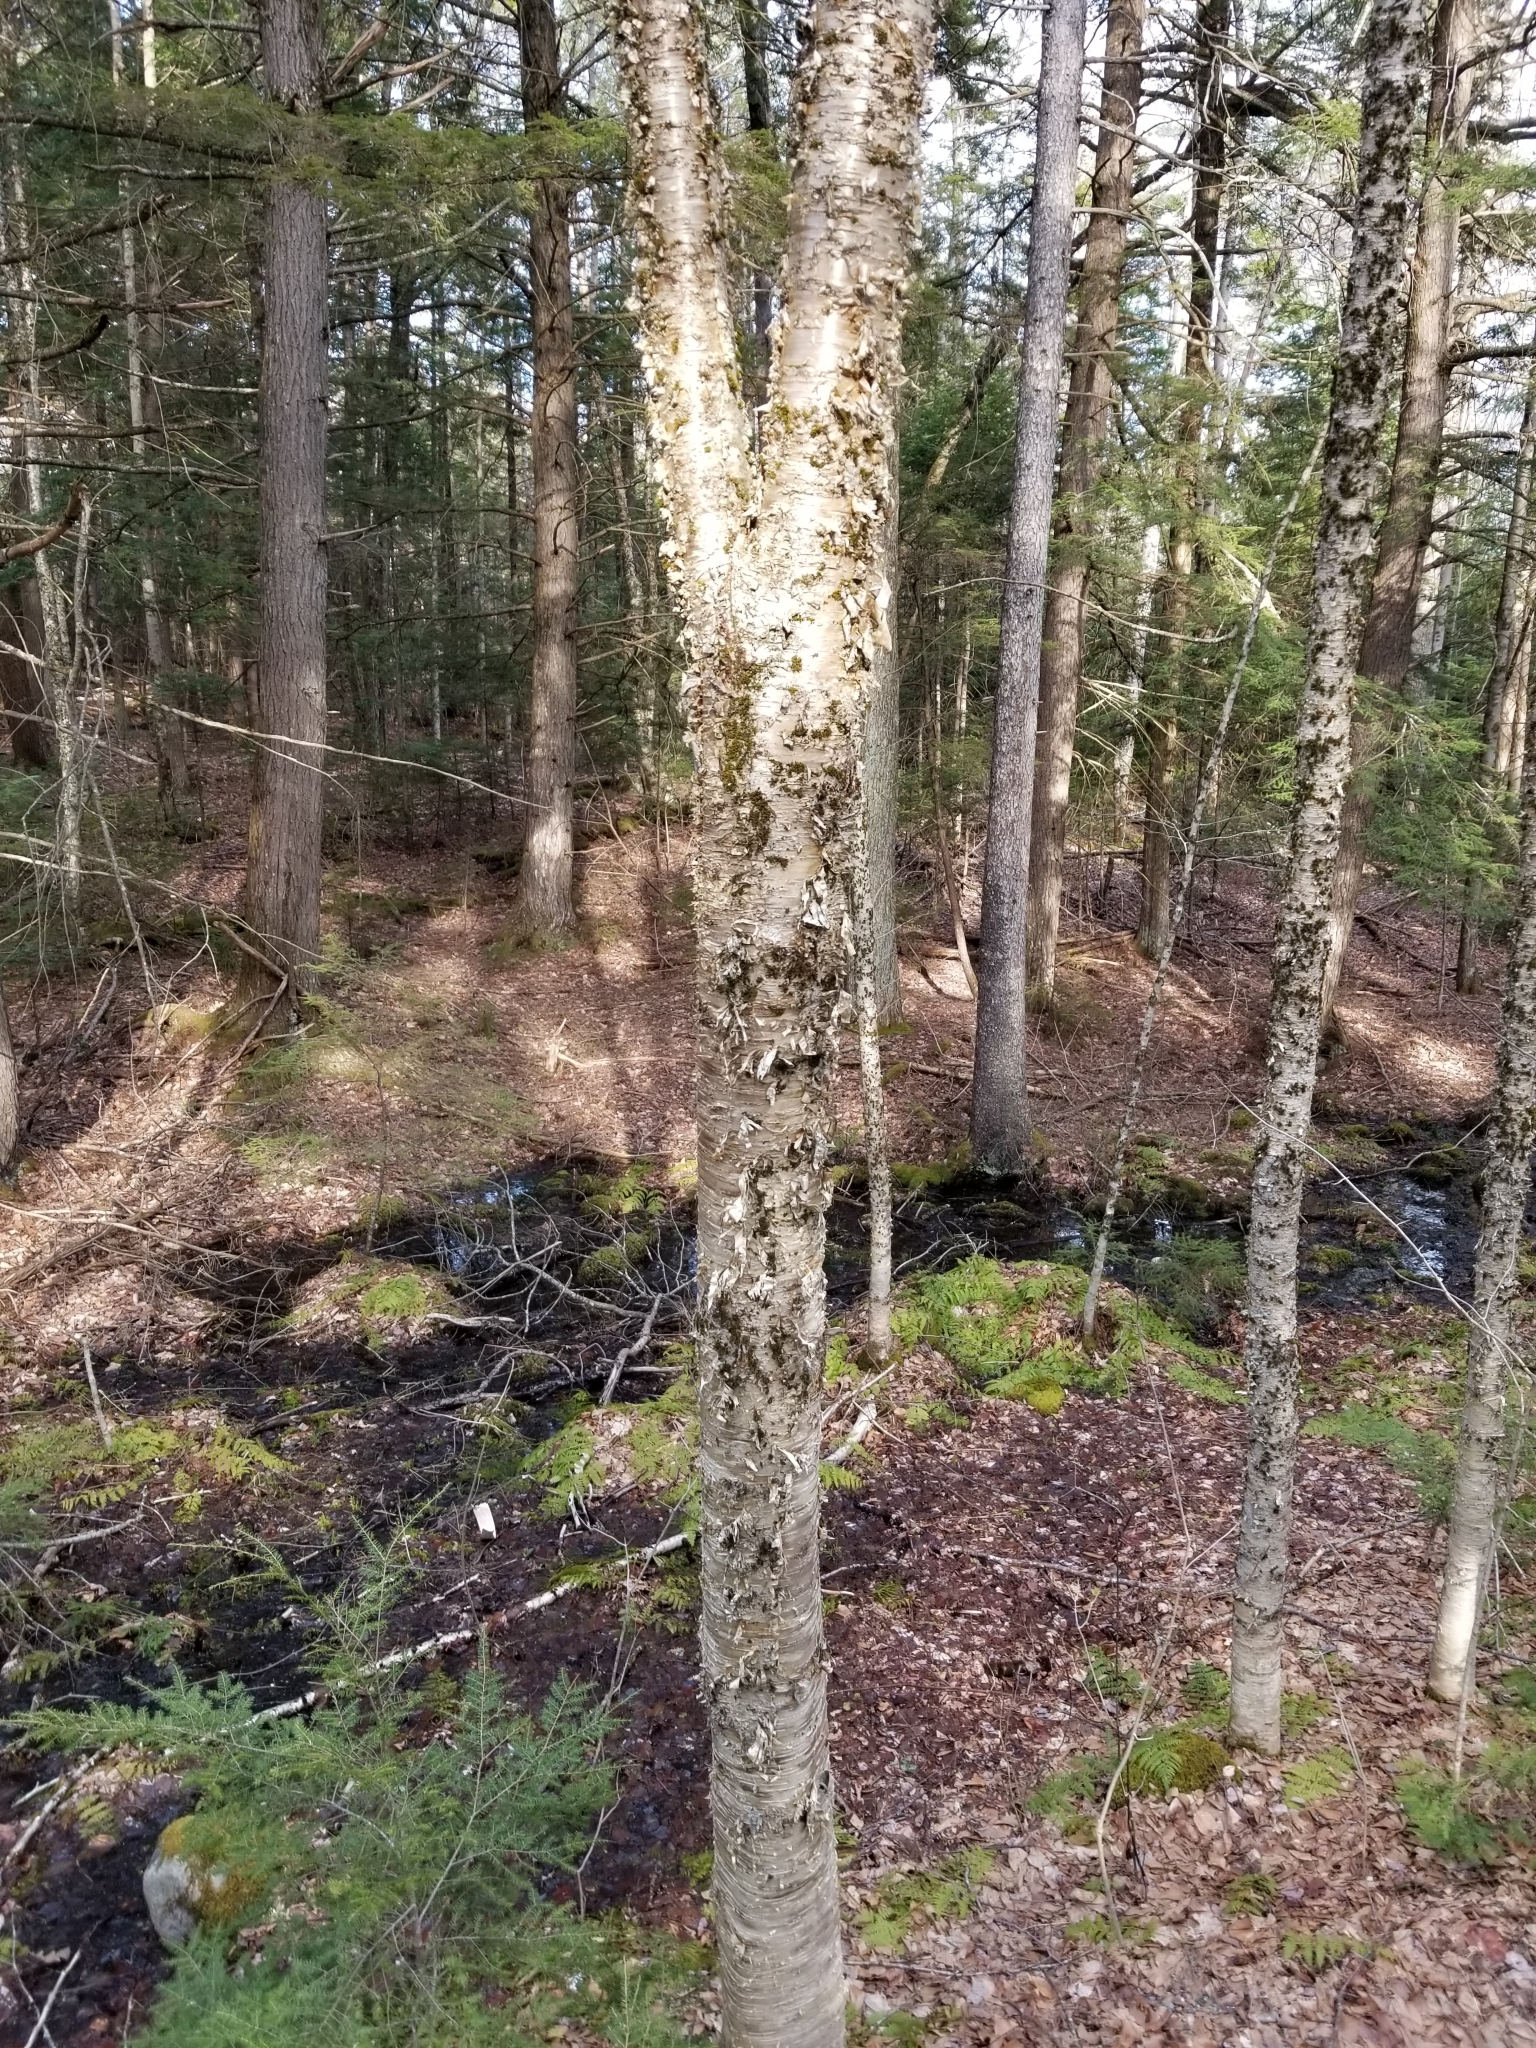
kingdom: Plantae
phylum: Tracheophyta
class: Magnoliopsida
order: Fagales
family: Betulaceae
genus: Betula
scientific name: Betula alleghaniensis
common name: Yellow birch
